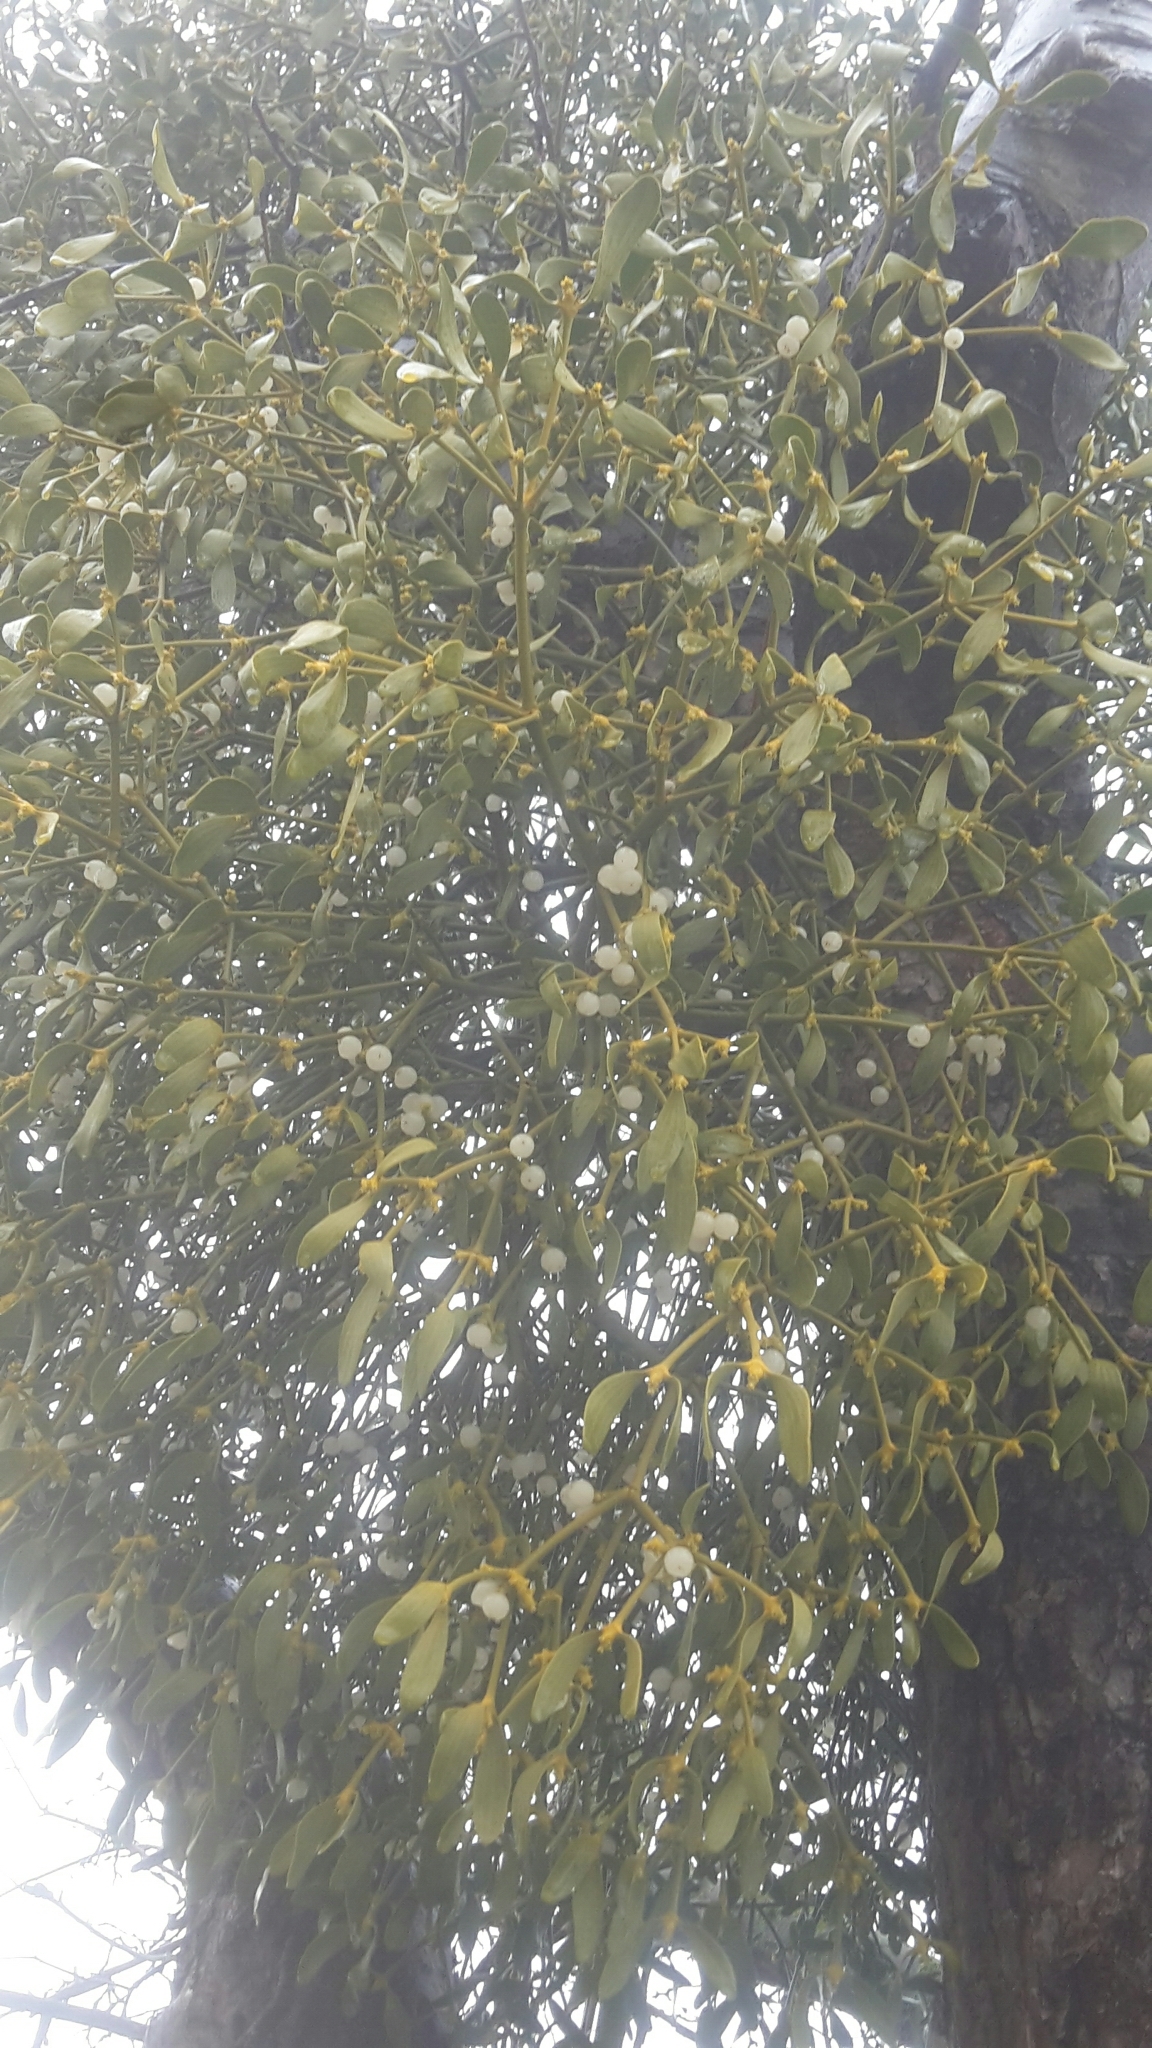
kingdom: Plantae
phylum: Tracheophyta
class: Magnoliopsida
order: Santalales
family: Viscaceae
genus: Viscum
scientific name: Viscum album
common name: Mistletoe
